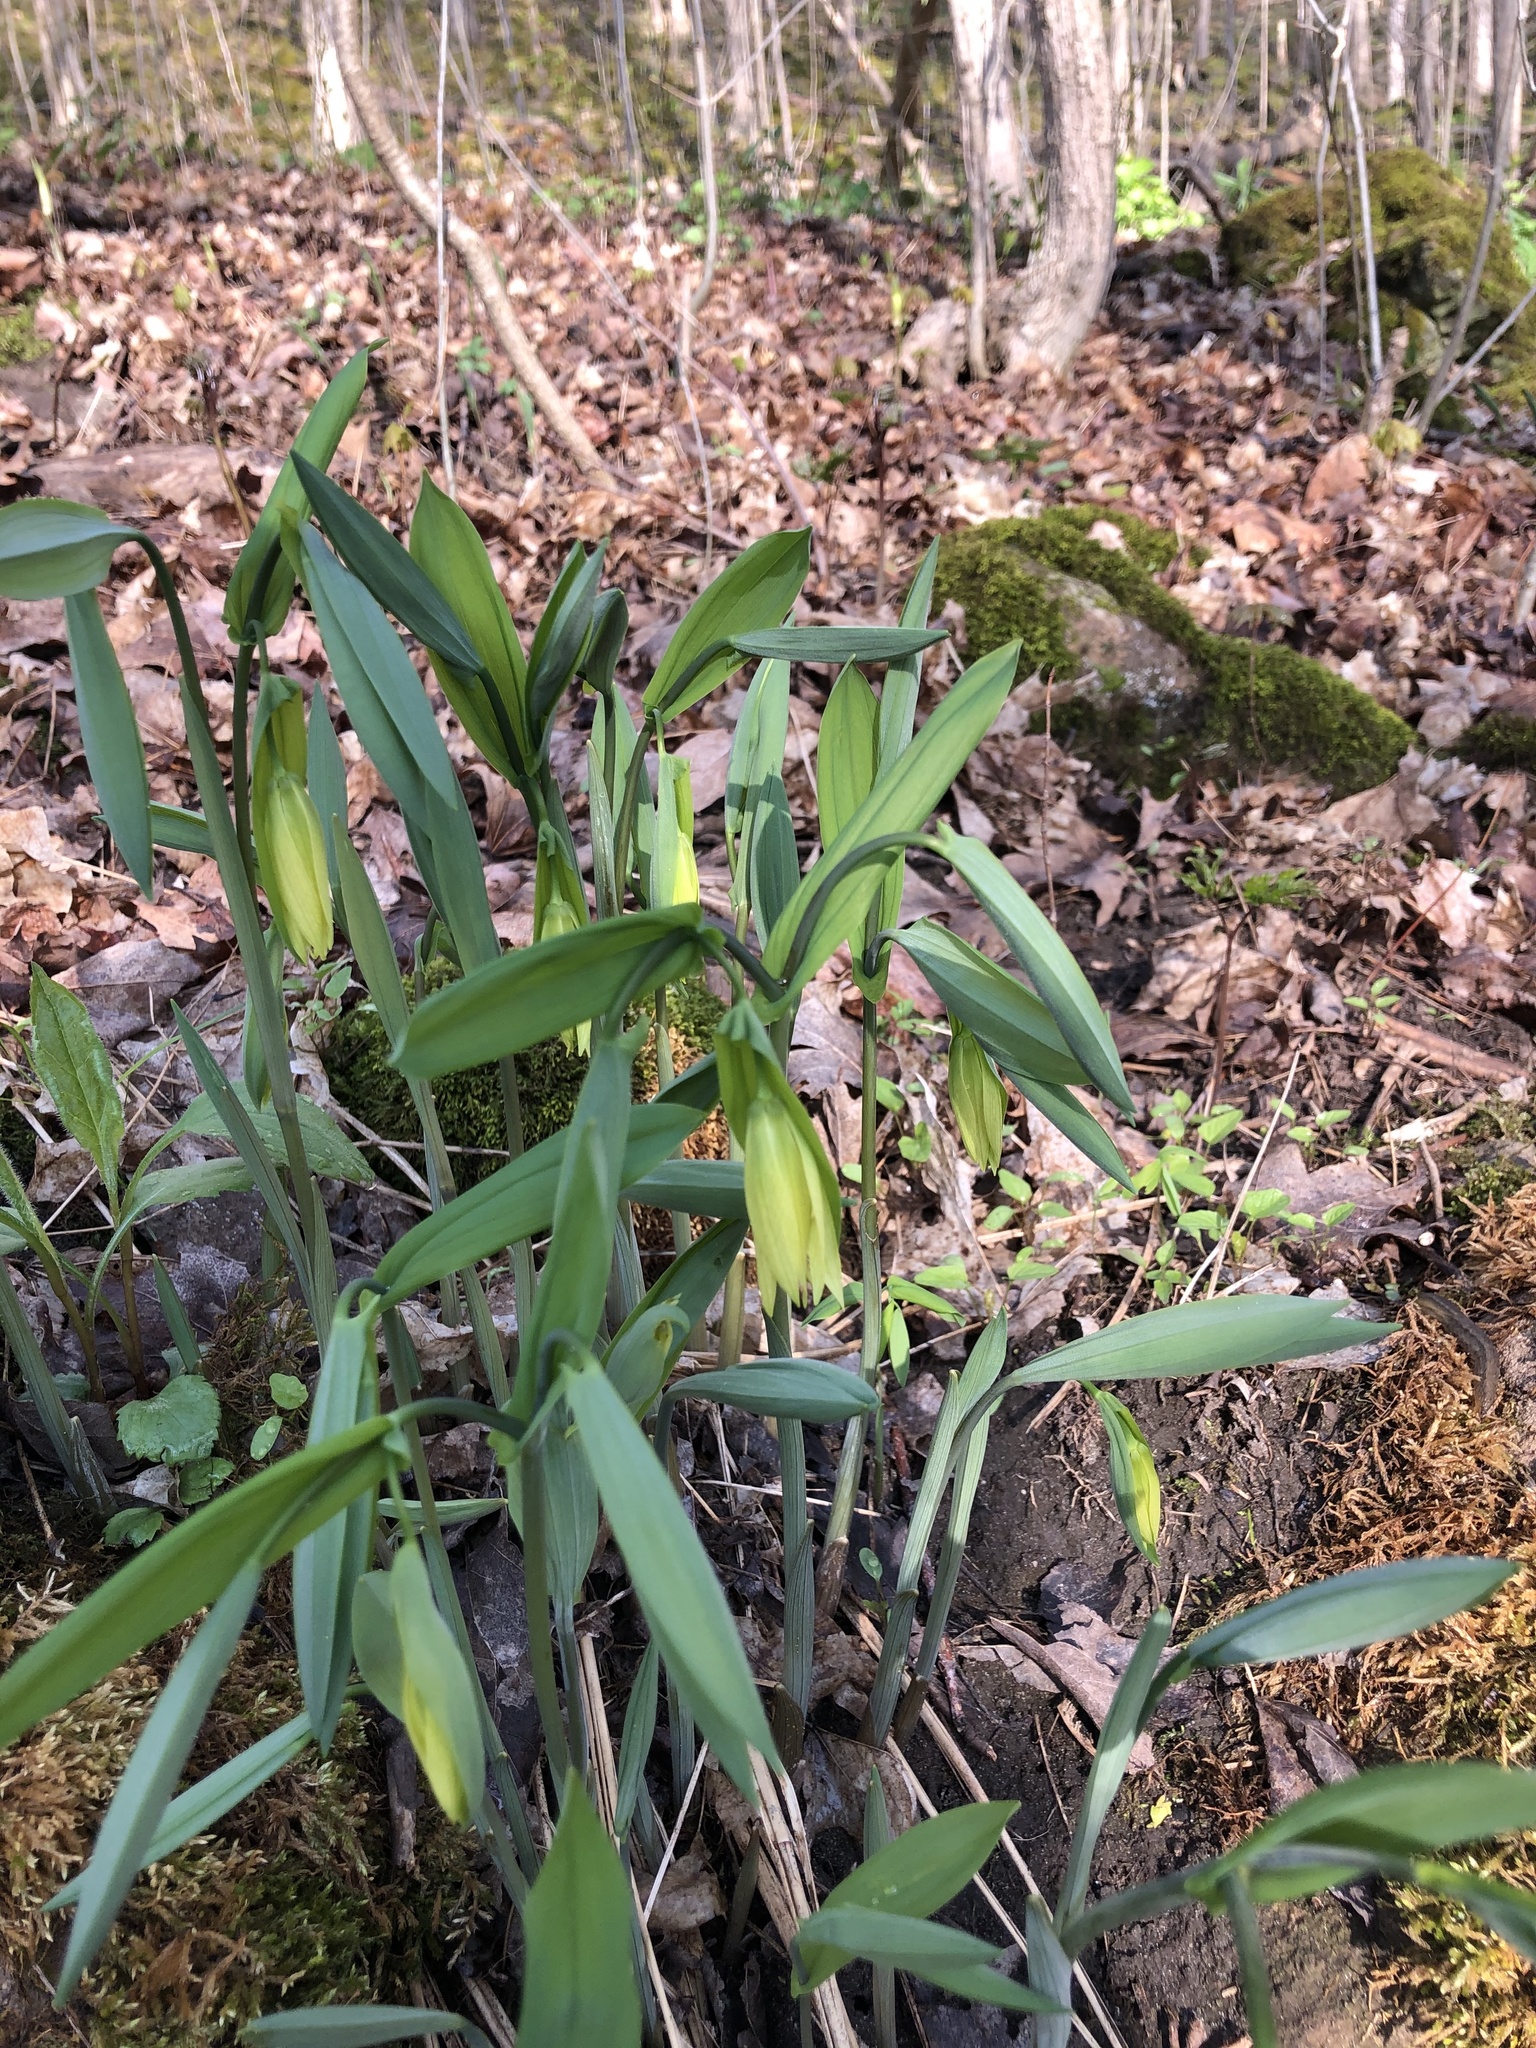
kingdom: Plantae
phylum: Tracheophyta
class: Liliopsida
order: Liliales
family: Colchicaceae
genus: Uvularia
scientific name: Uvularia grandiflora
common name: Bellwort
